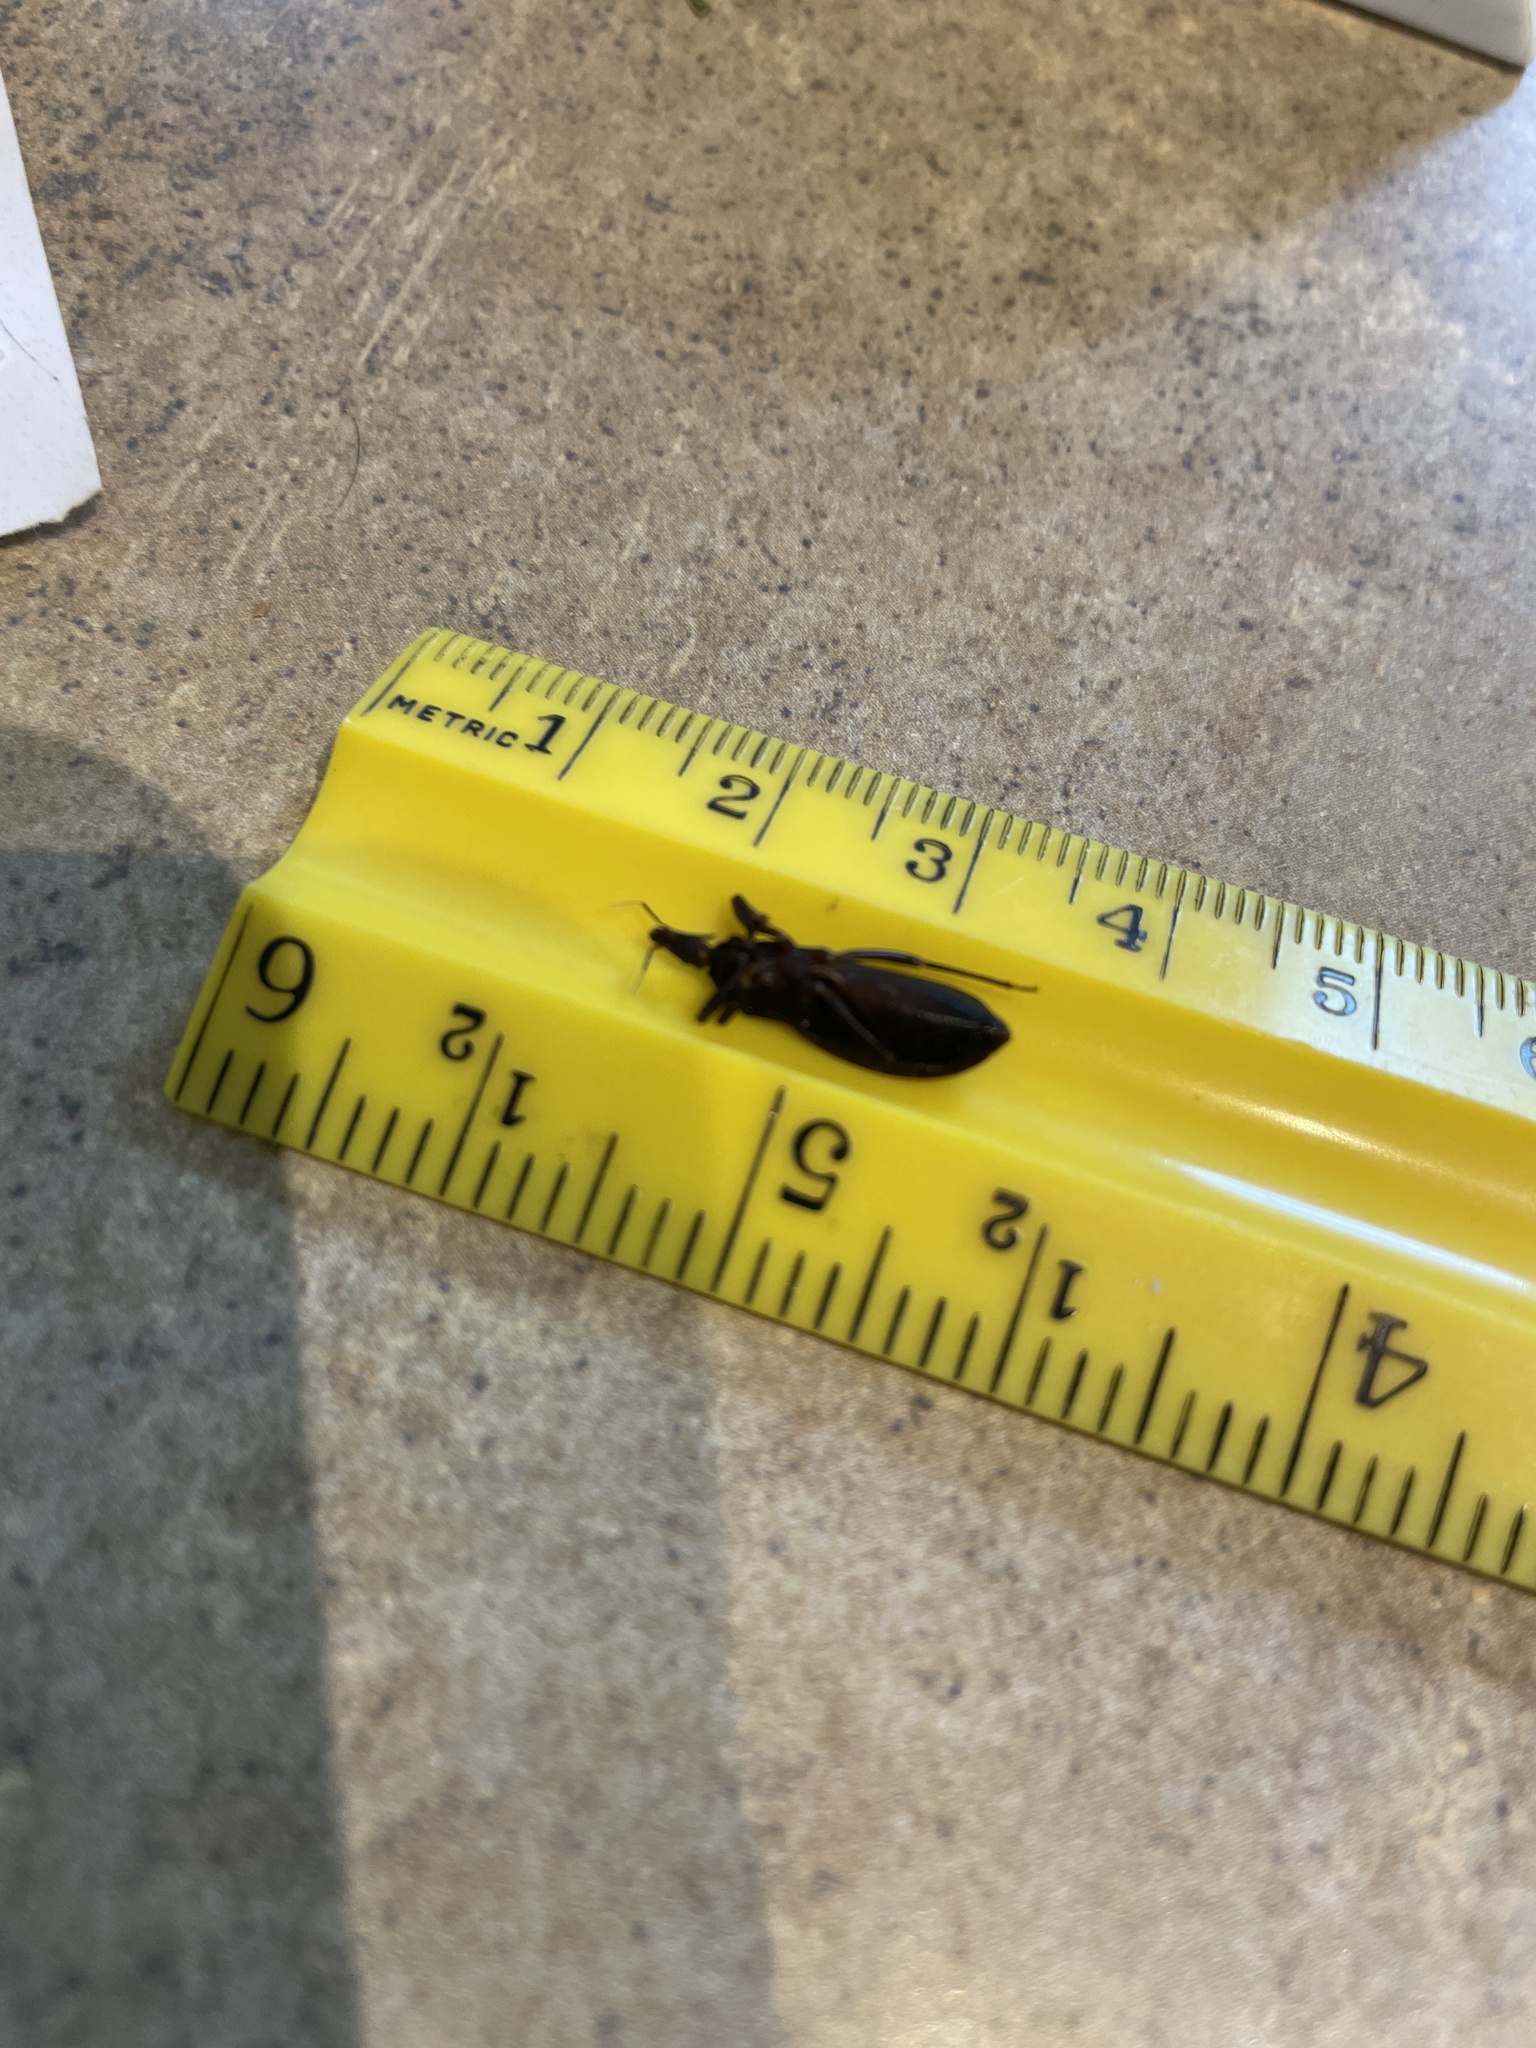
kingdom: Animalia
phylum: Arthropoda
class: Insecta
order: Hemiptera
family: Reduviidae
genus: Triatoma
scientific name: Triatoma protracta
